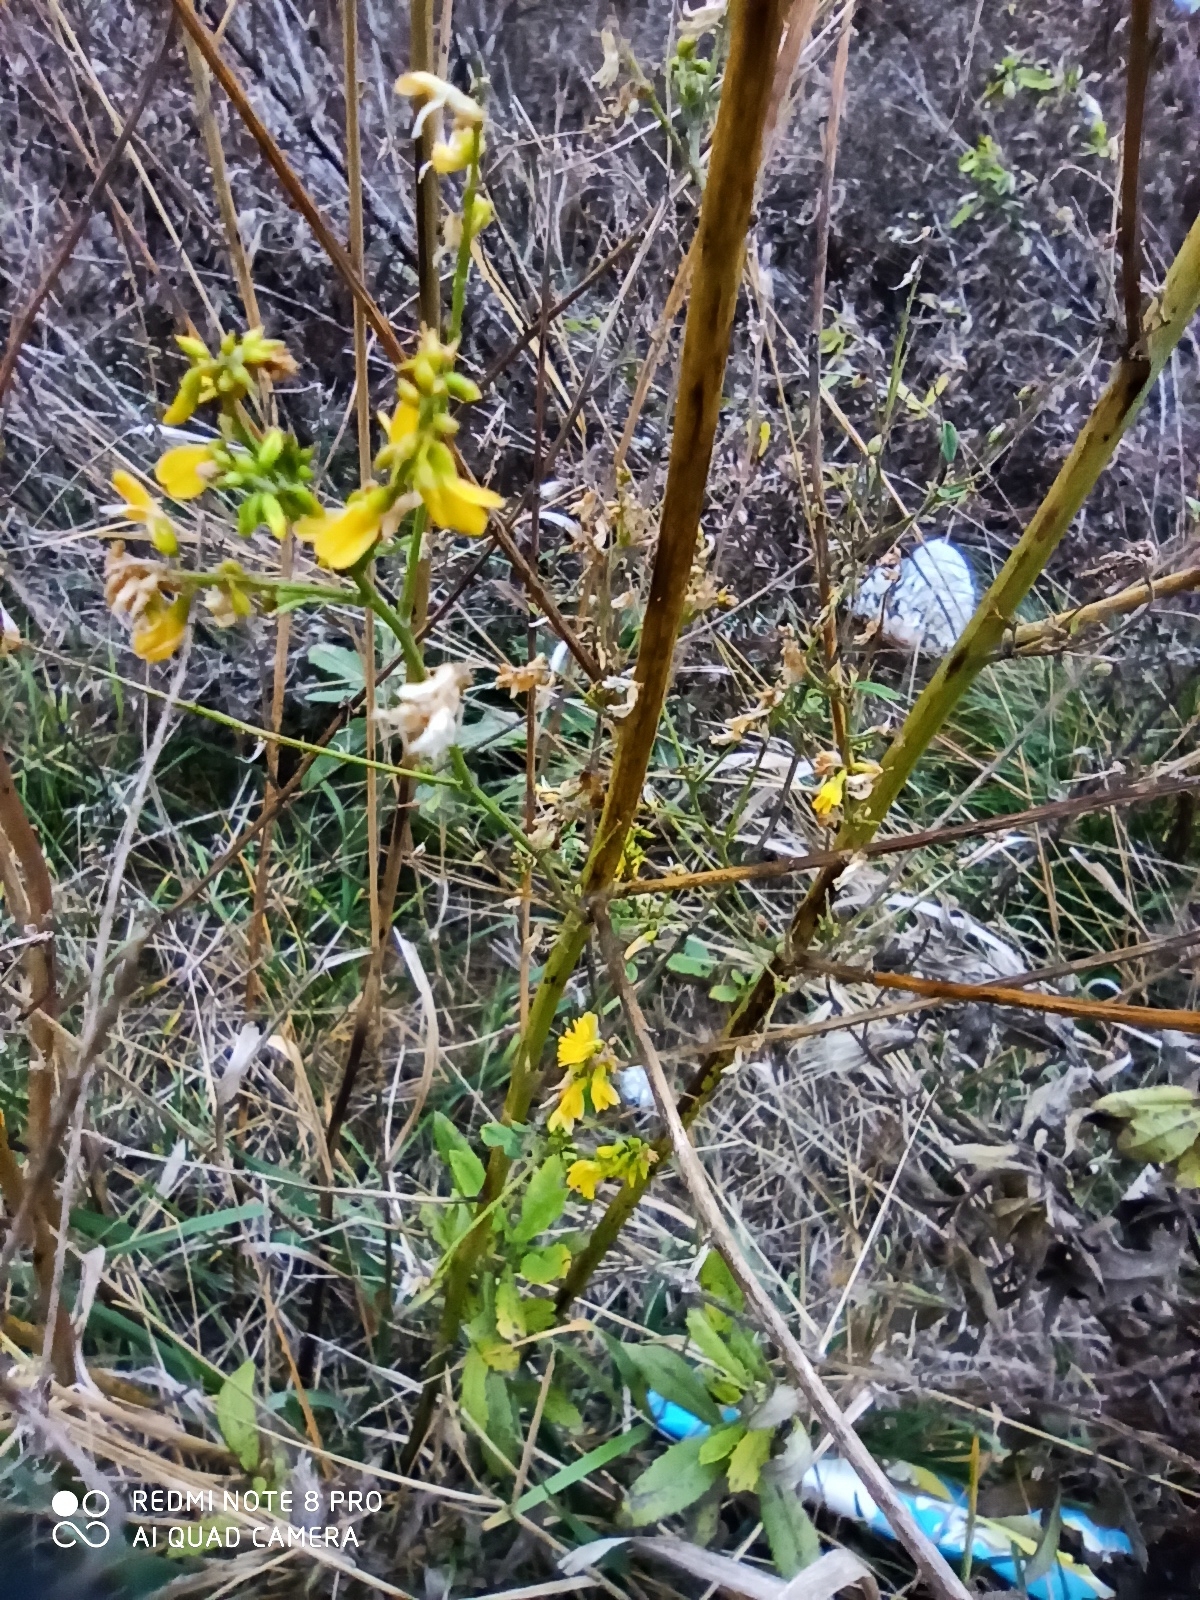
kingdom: Plantae
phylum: Tracheophyta
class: Magnoliopsida
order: Fabales
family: Fabaceae
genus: Melilotus
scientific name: Melilotus officinalis
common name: Sweetclover
